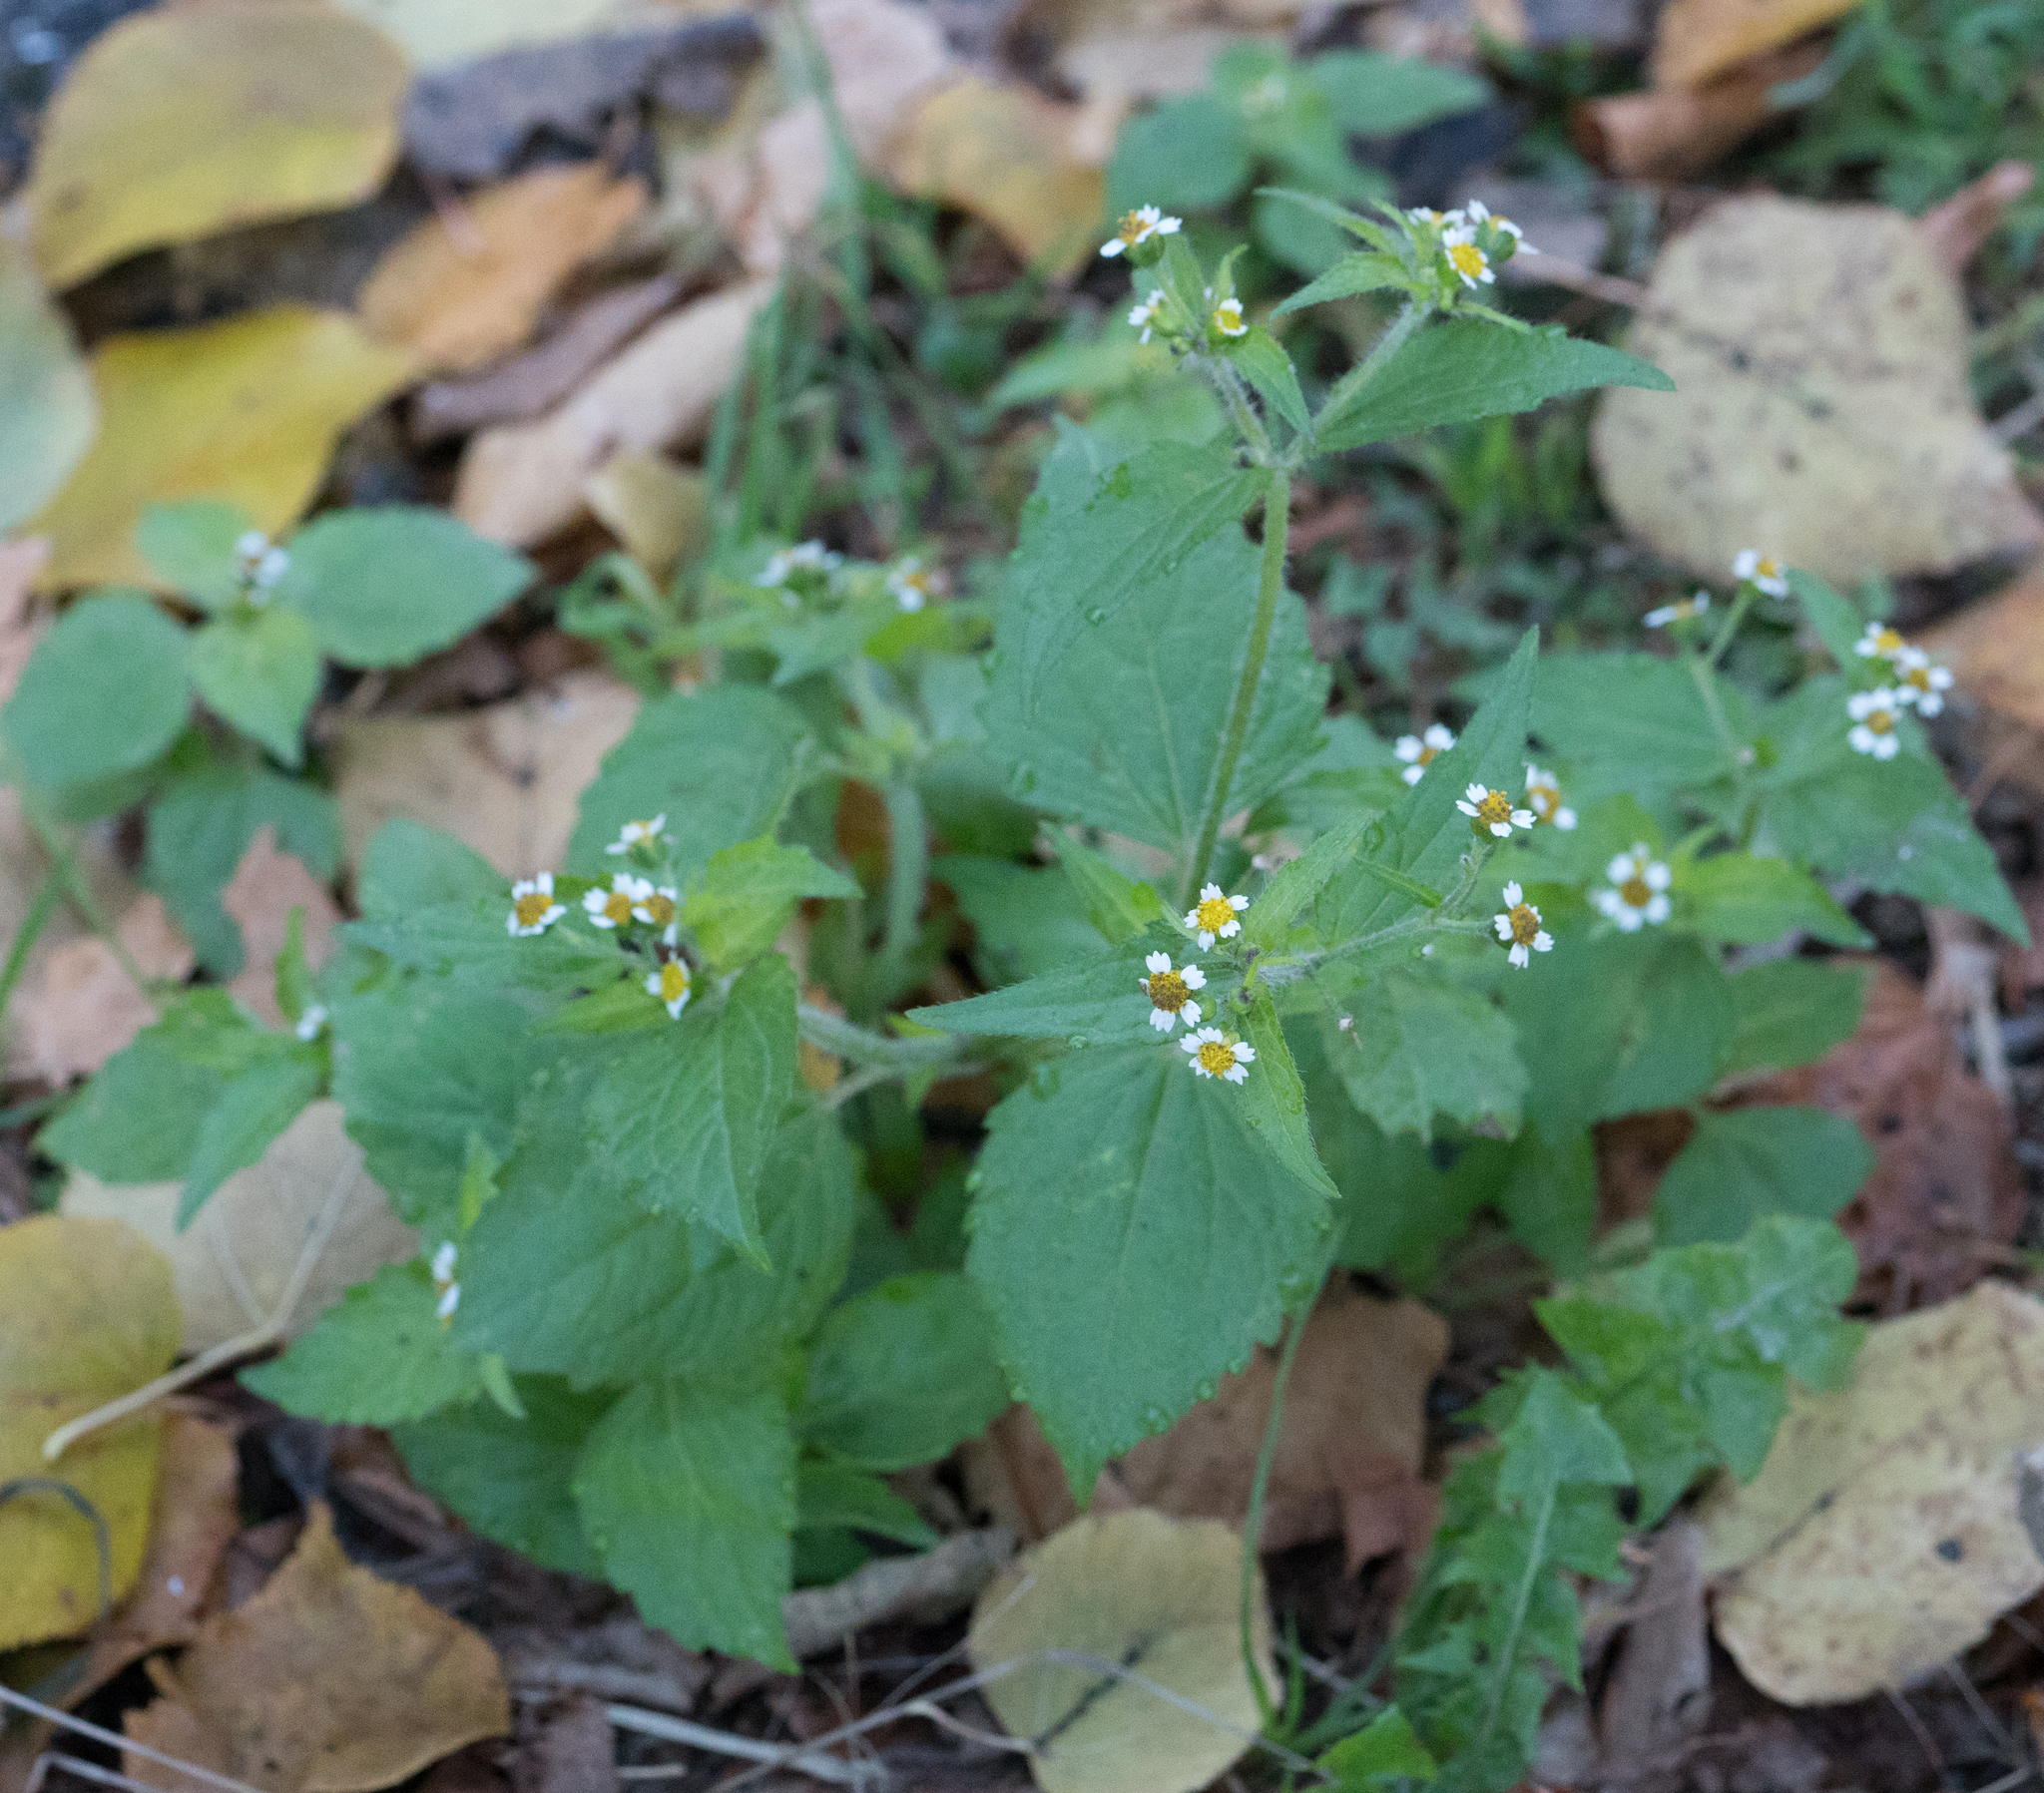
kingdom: Plantae
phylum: Tracheophyta
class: Magnoliopsida
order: Asterales
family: Asteraceae
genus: Galinsoga
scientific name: Galinsoga quadriradiata
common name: Shaggy soldier
